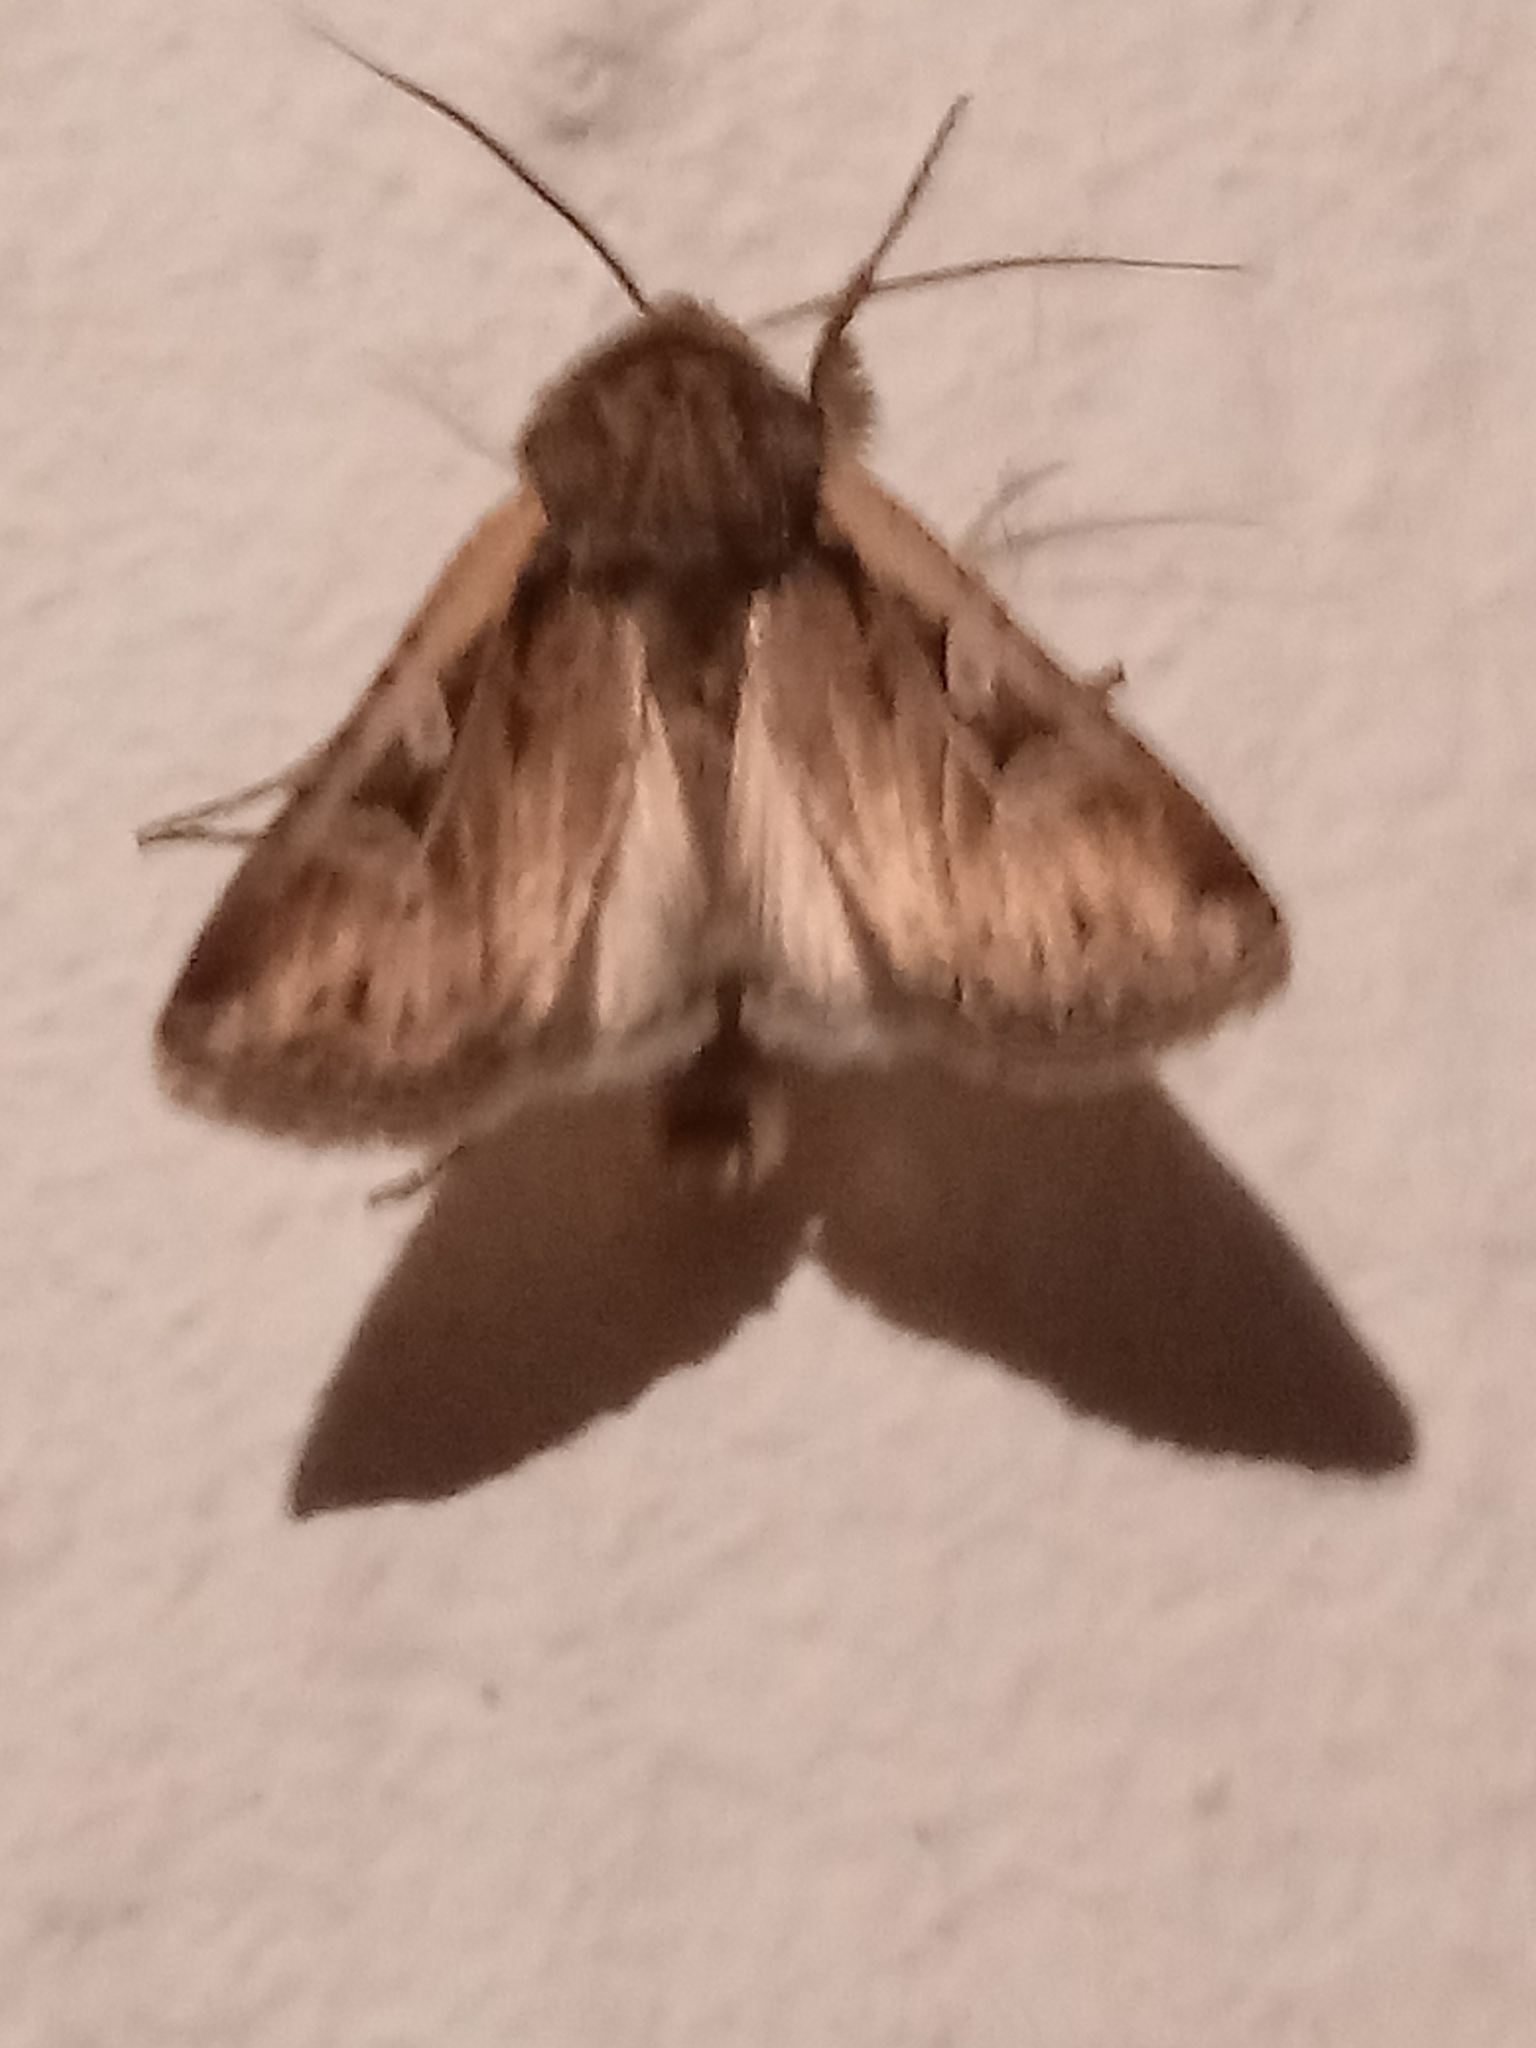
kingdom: Animalia
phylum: Arthropoda
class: Insecta
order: Lepidoptera
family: Noctuidae
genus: Feltia
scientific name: Feltia subterranea
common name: Granulate cutworm
